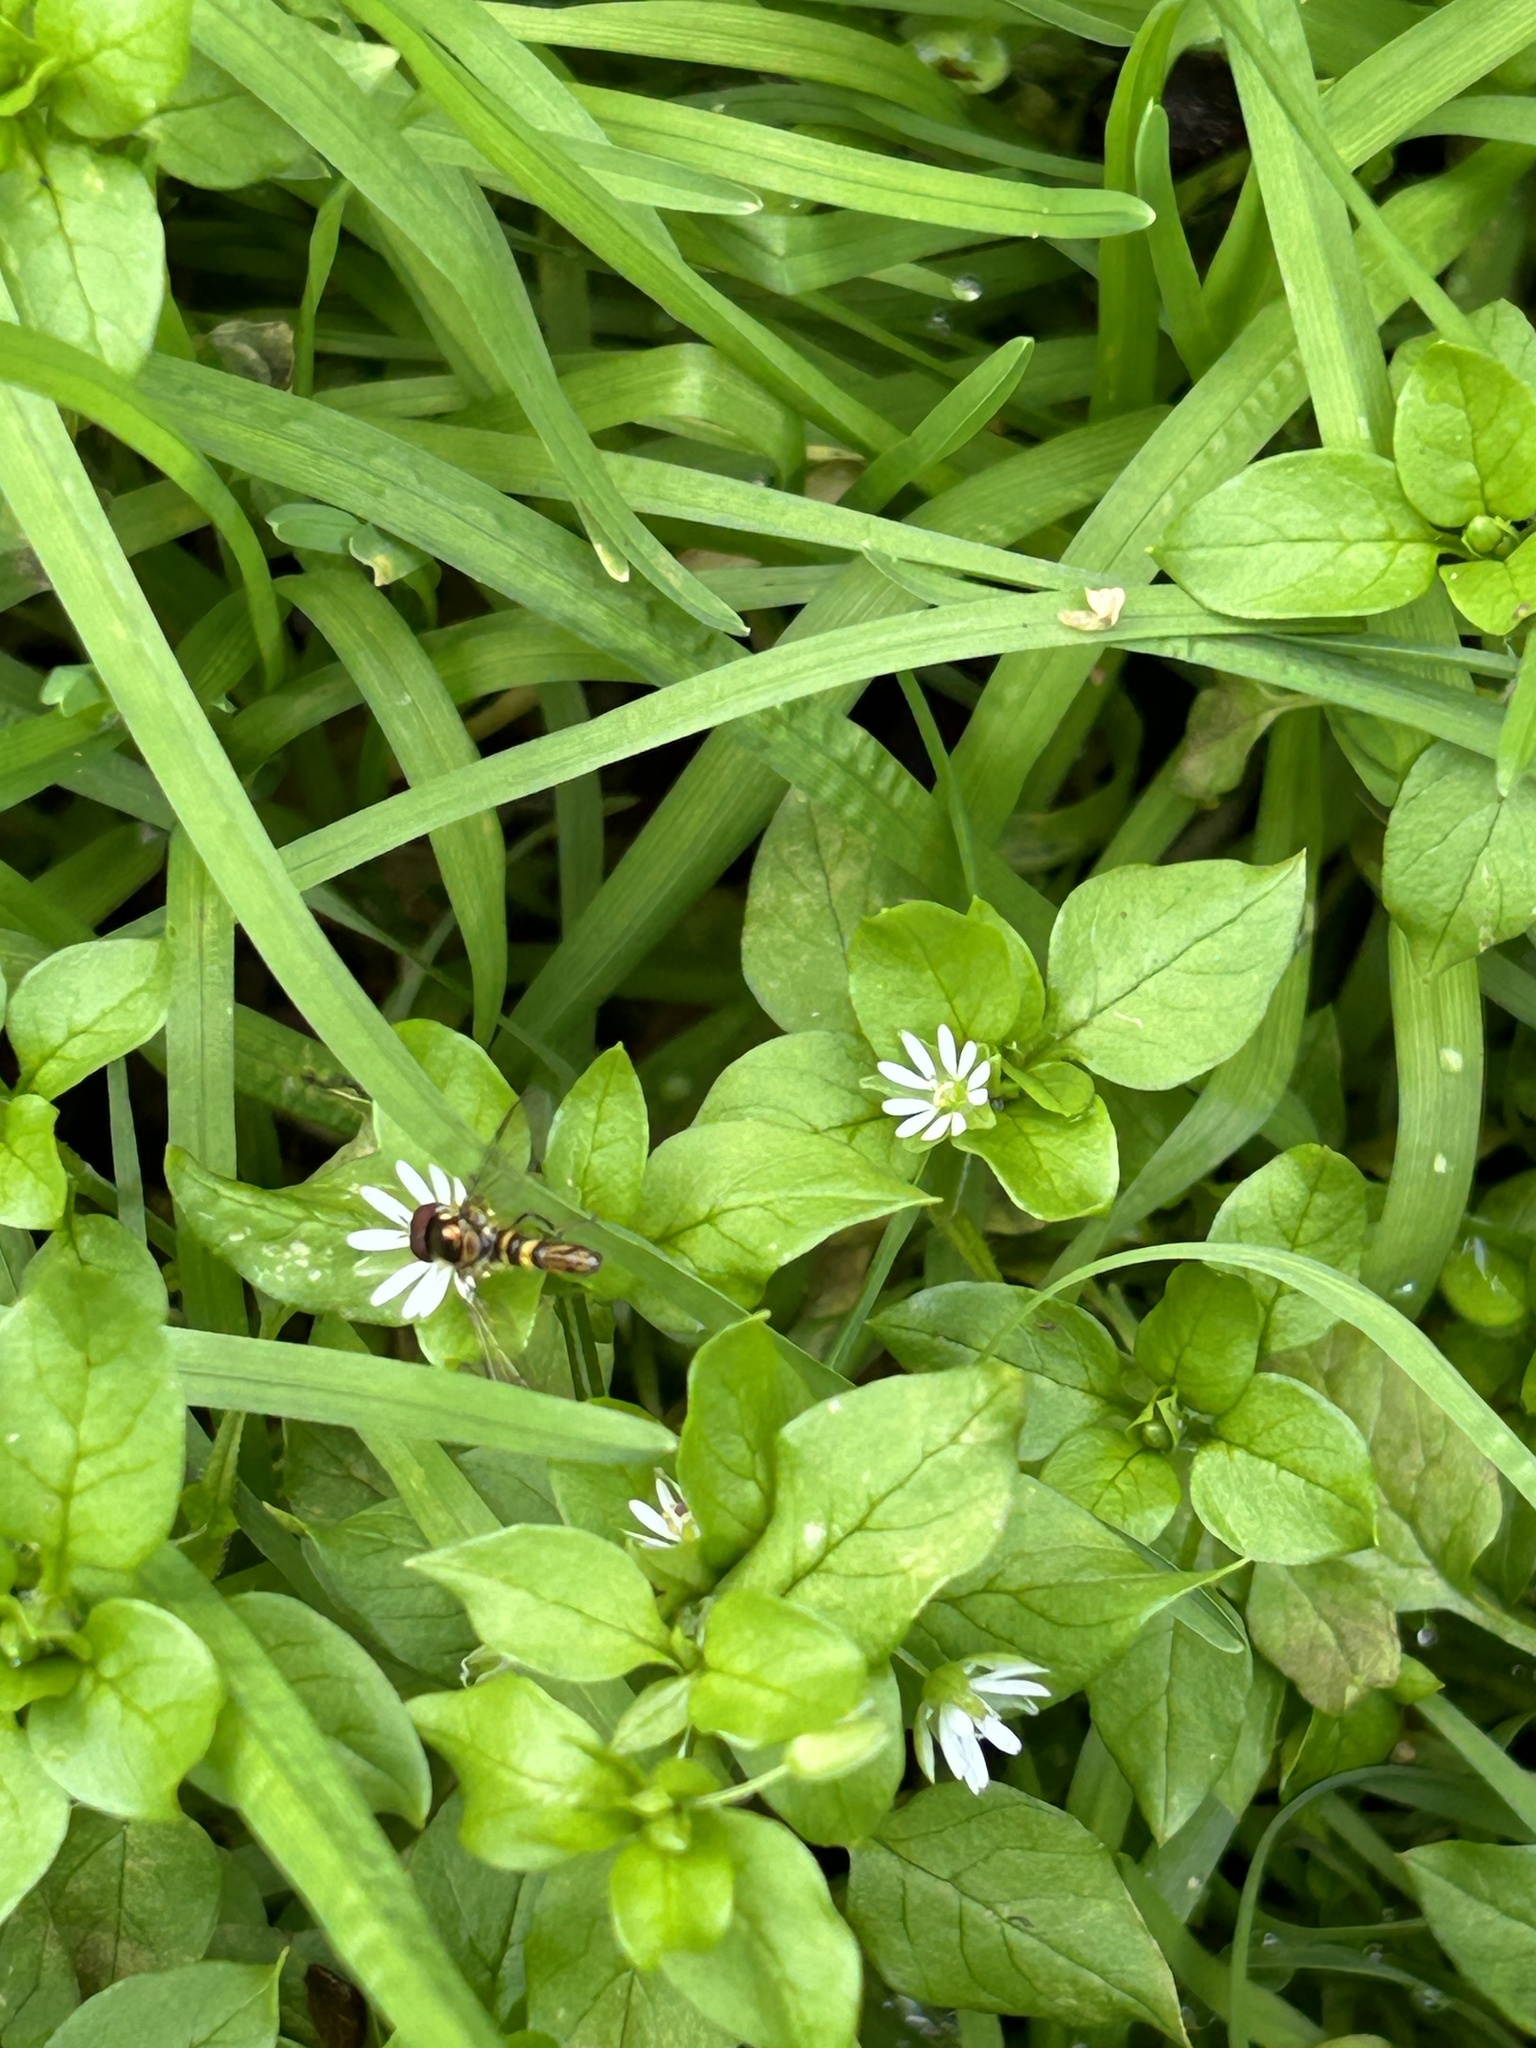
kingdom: Animalia
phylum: Arthropoda
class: Insecta
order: Diptera
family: Syrphidae
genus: Allograpta
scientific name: Allograpta obliqua
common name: Common oblique syrphid
